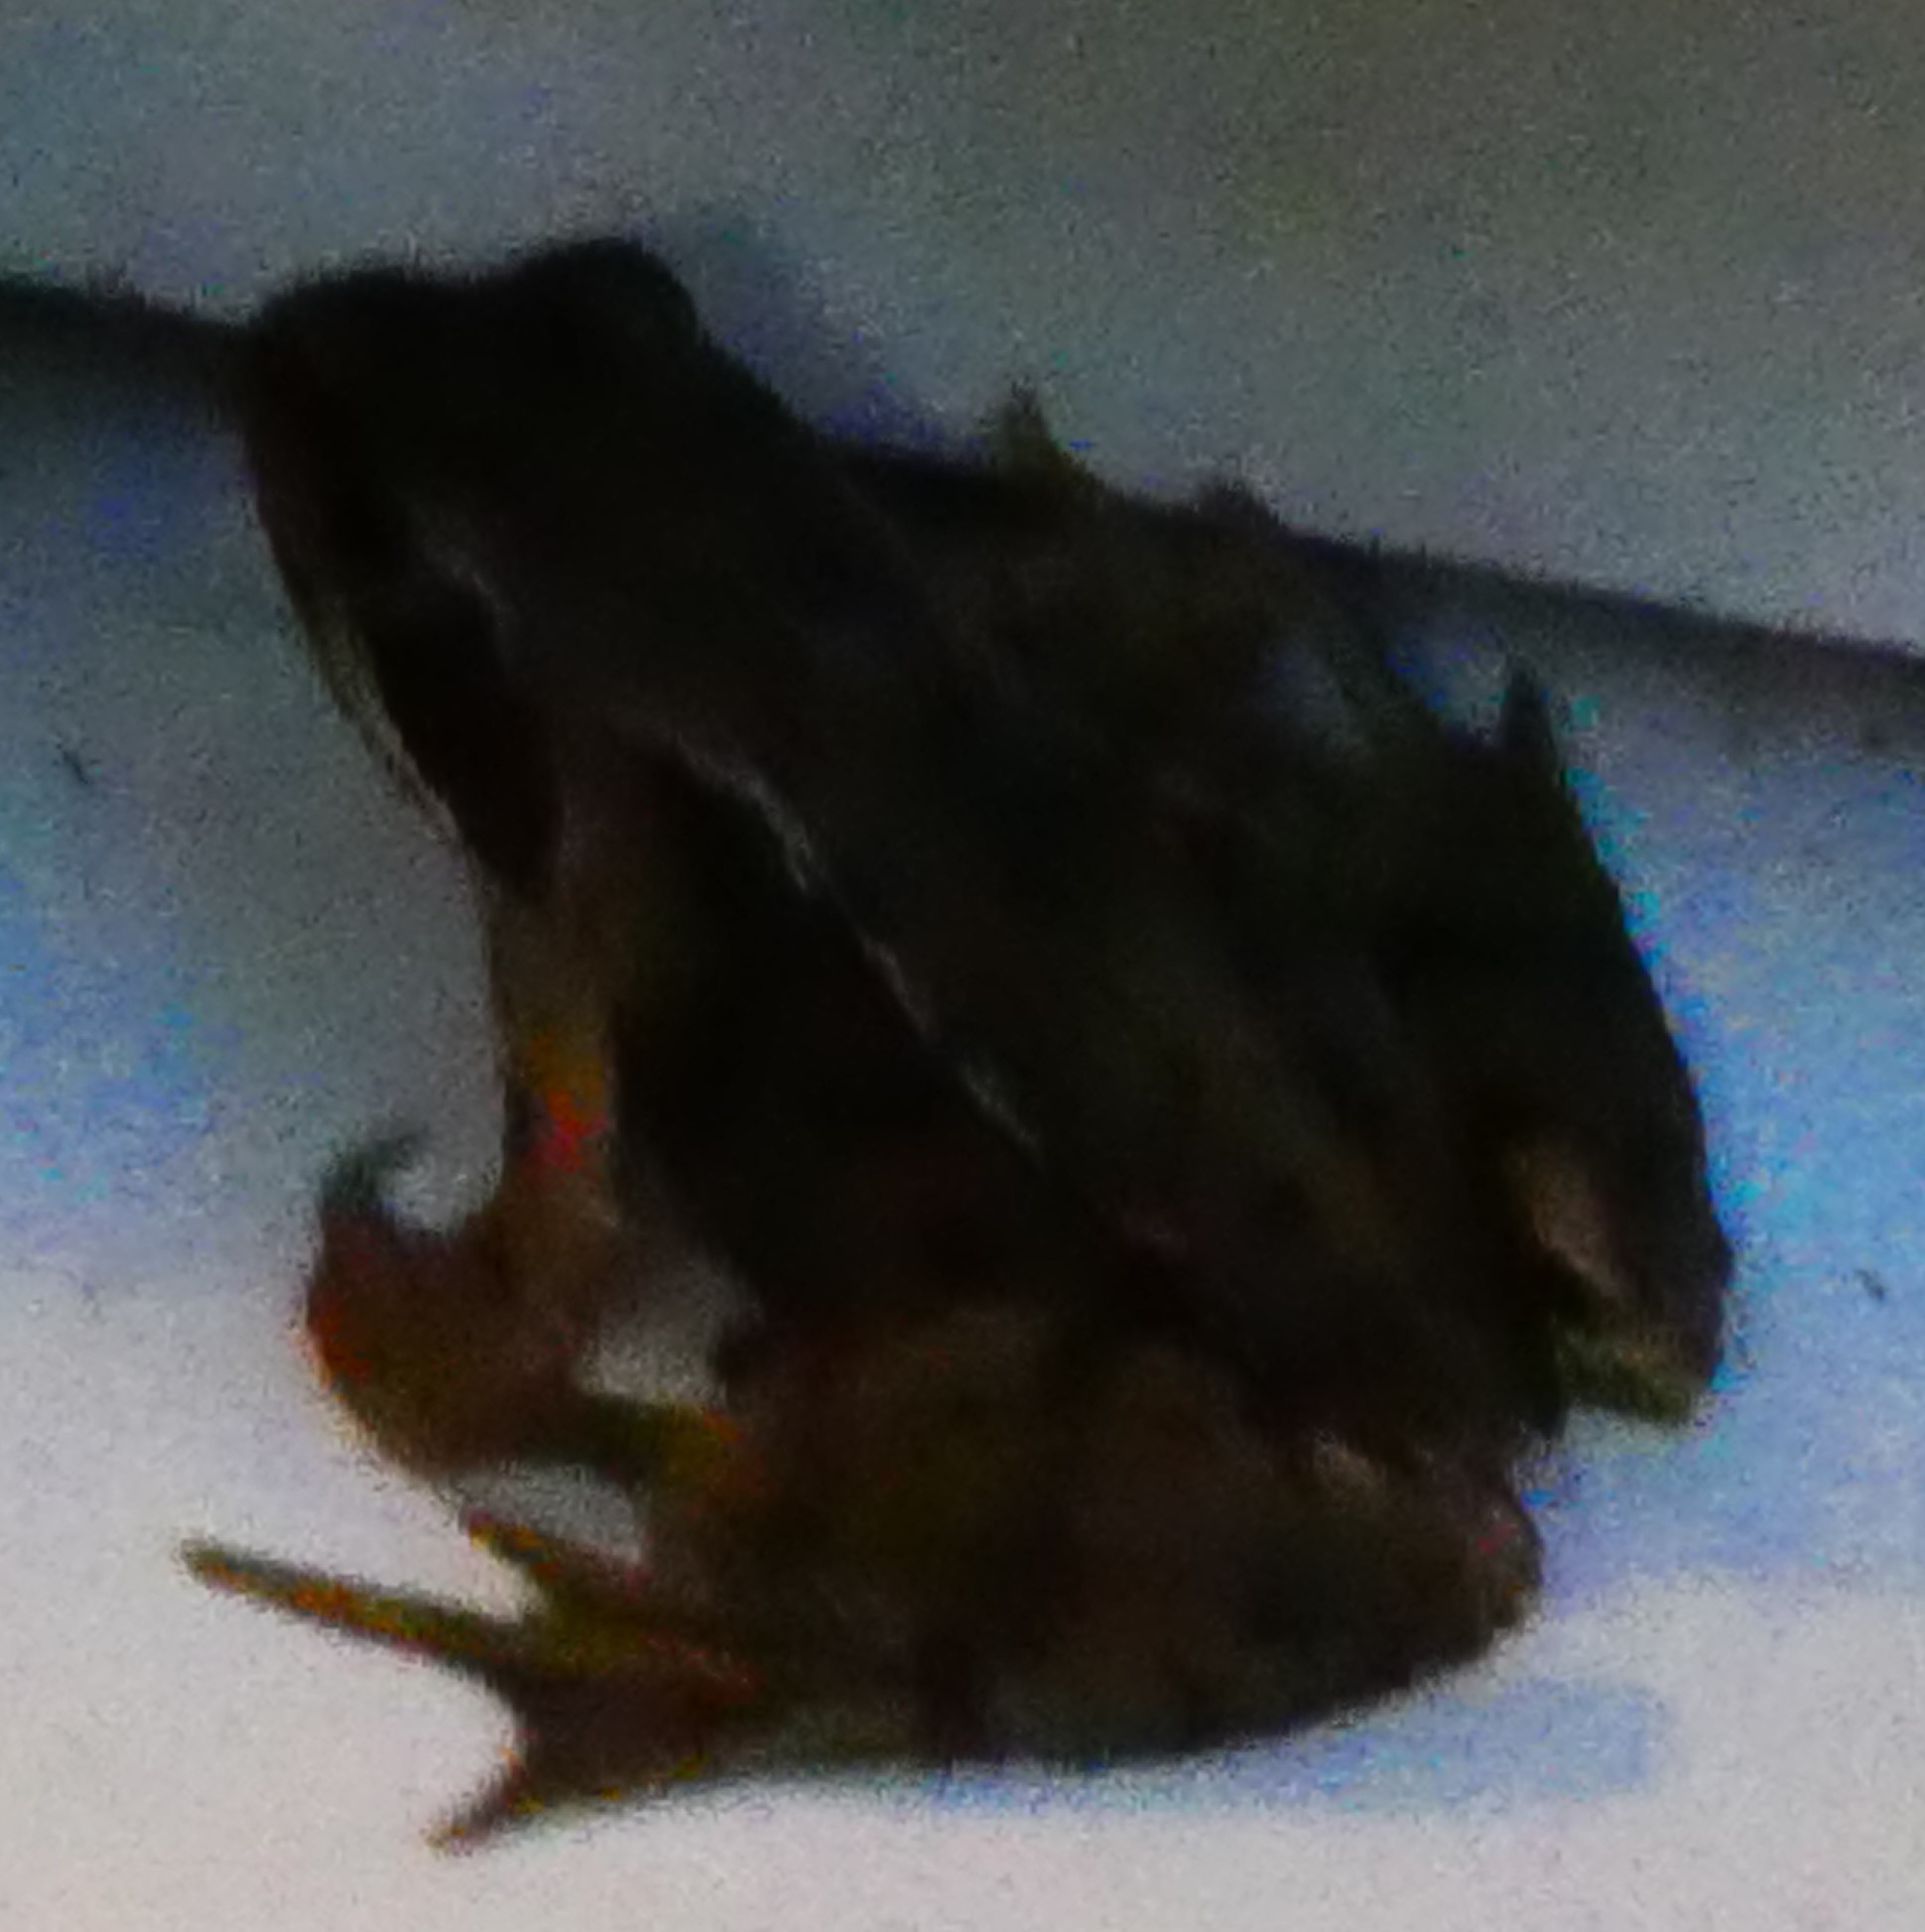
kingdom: Animalia
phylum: Chordata
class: Amphibia
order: Anura
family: Ranidae
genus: Rana
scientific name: Rana temporaria
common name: Common frog
